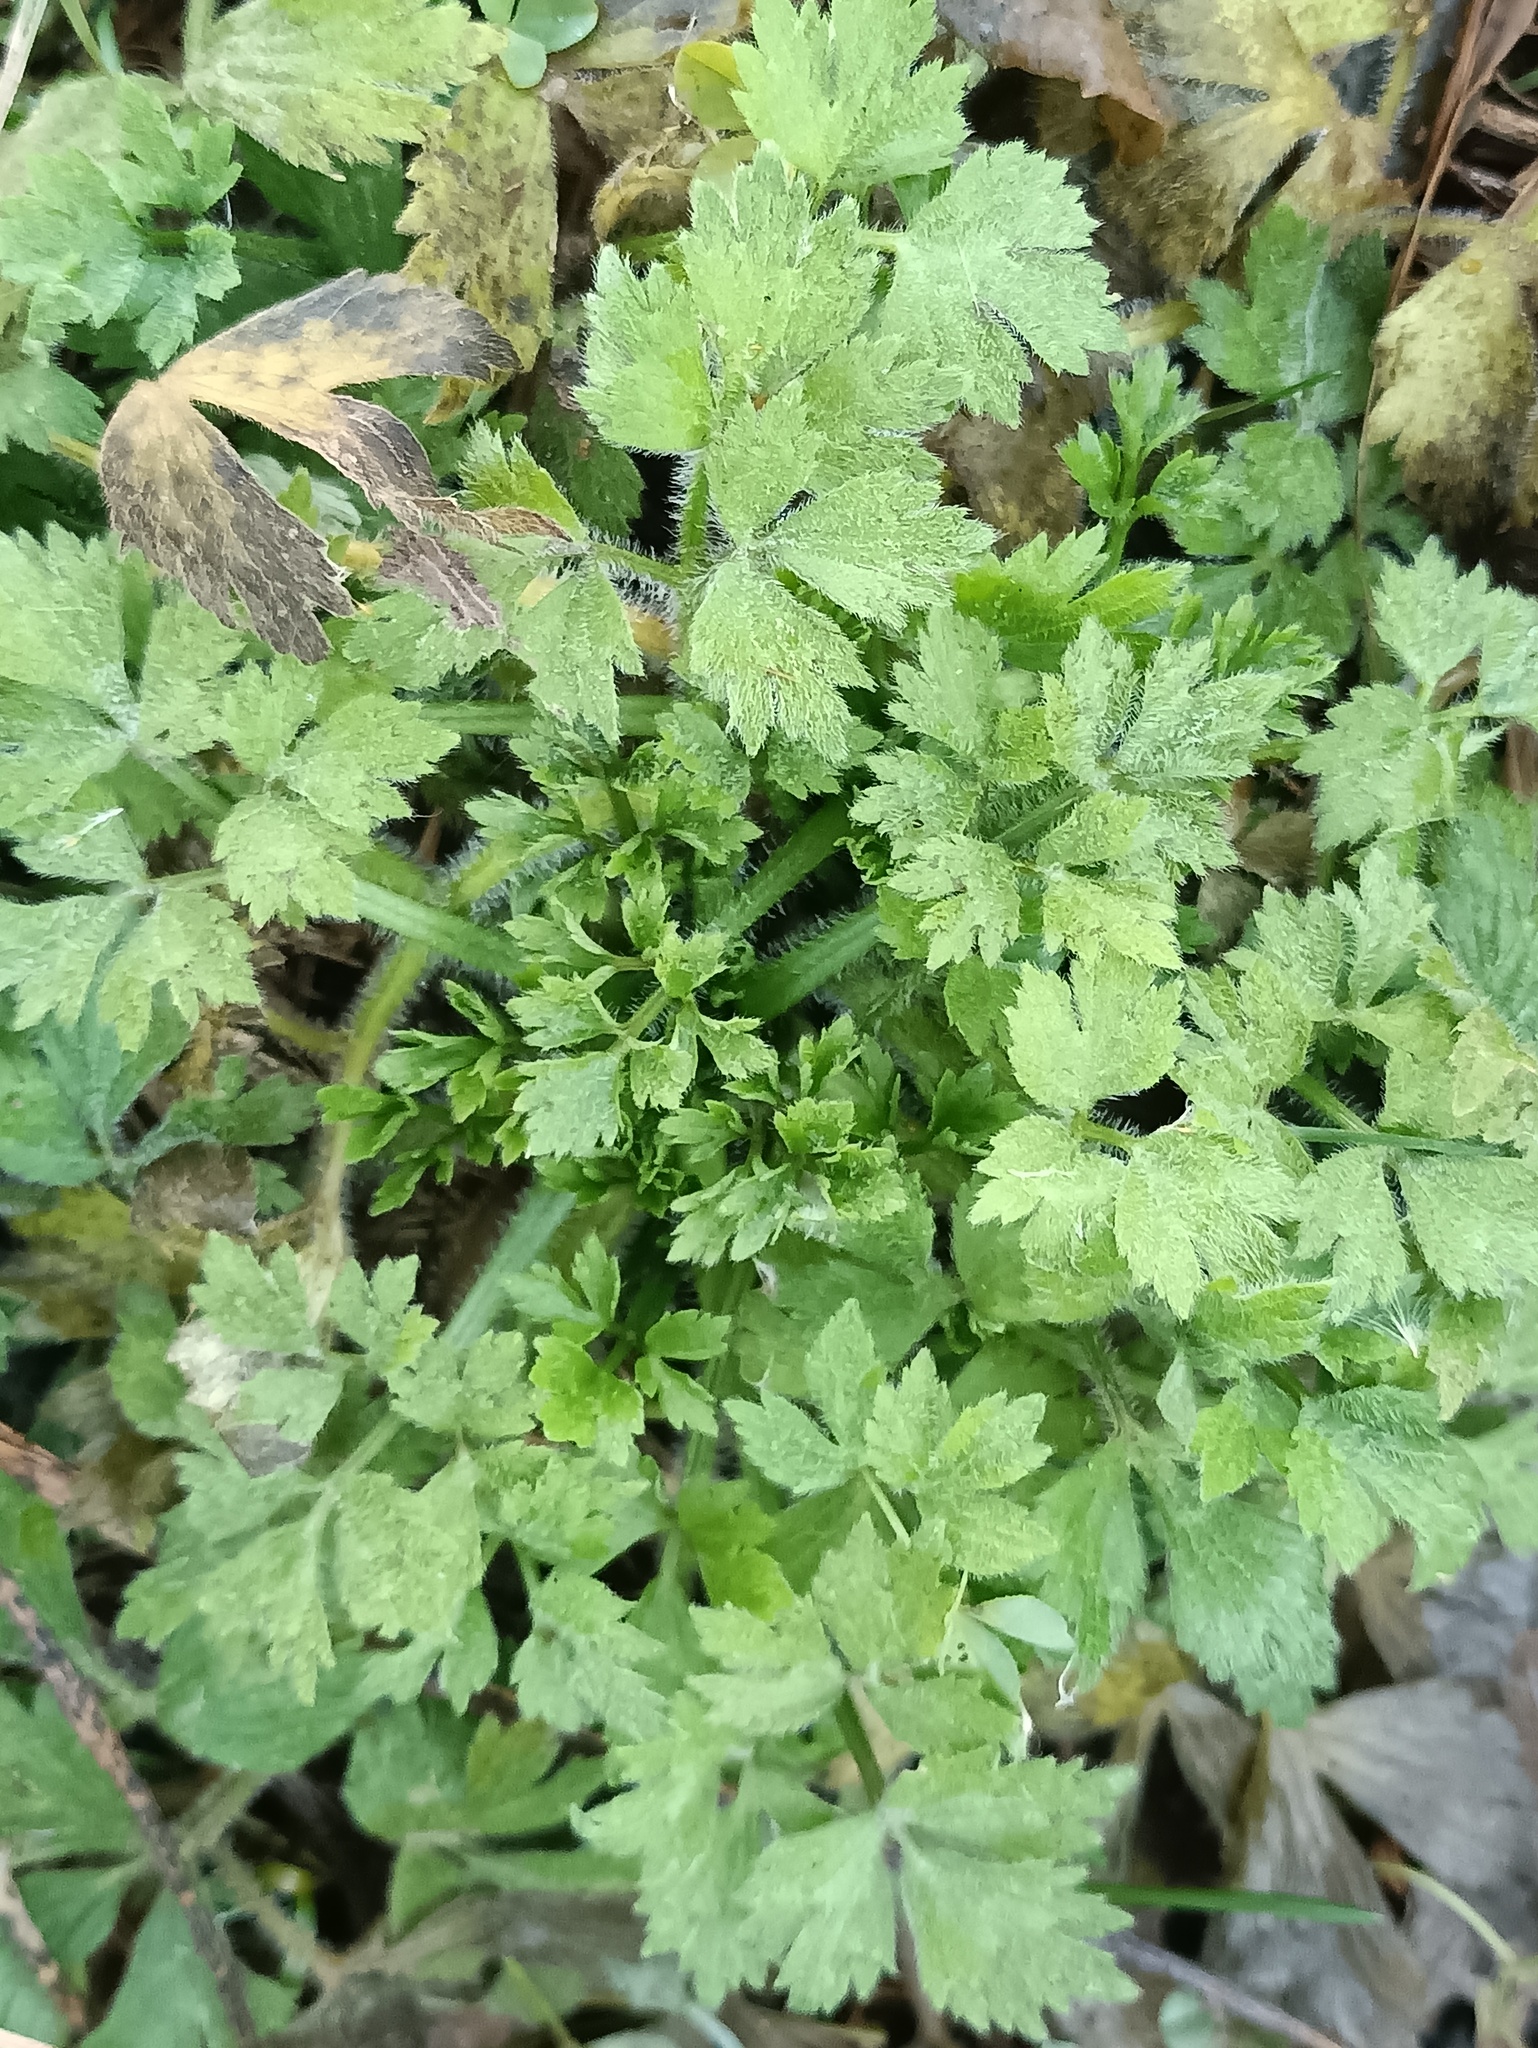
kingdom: Plantae
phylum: Tracheophyta
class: Magnoliopsida
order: Ranunculales
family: Ranunculaceae
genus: Ranunculus
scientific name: Ranunculus repens
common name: Creeping buttercup
